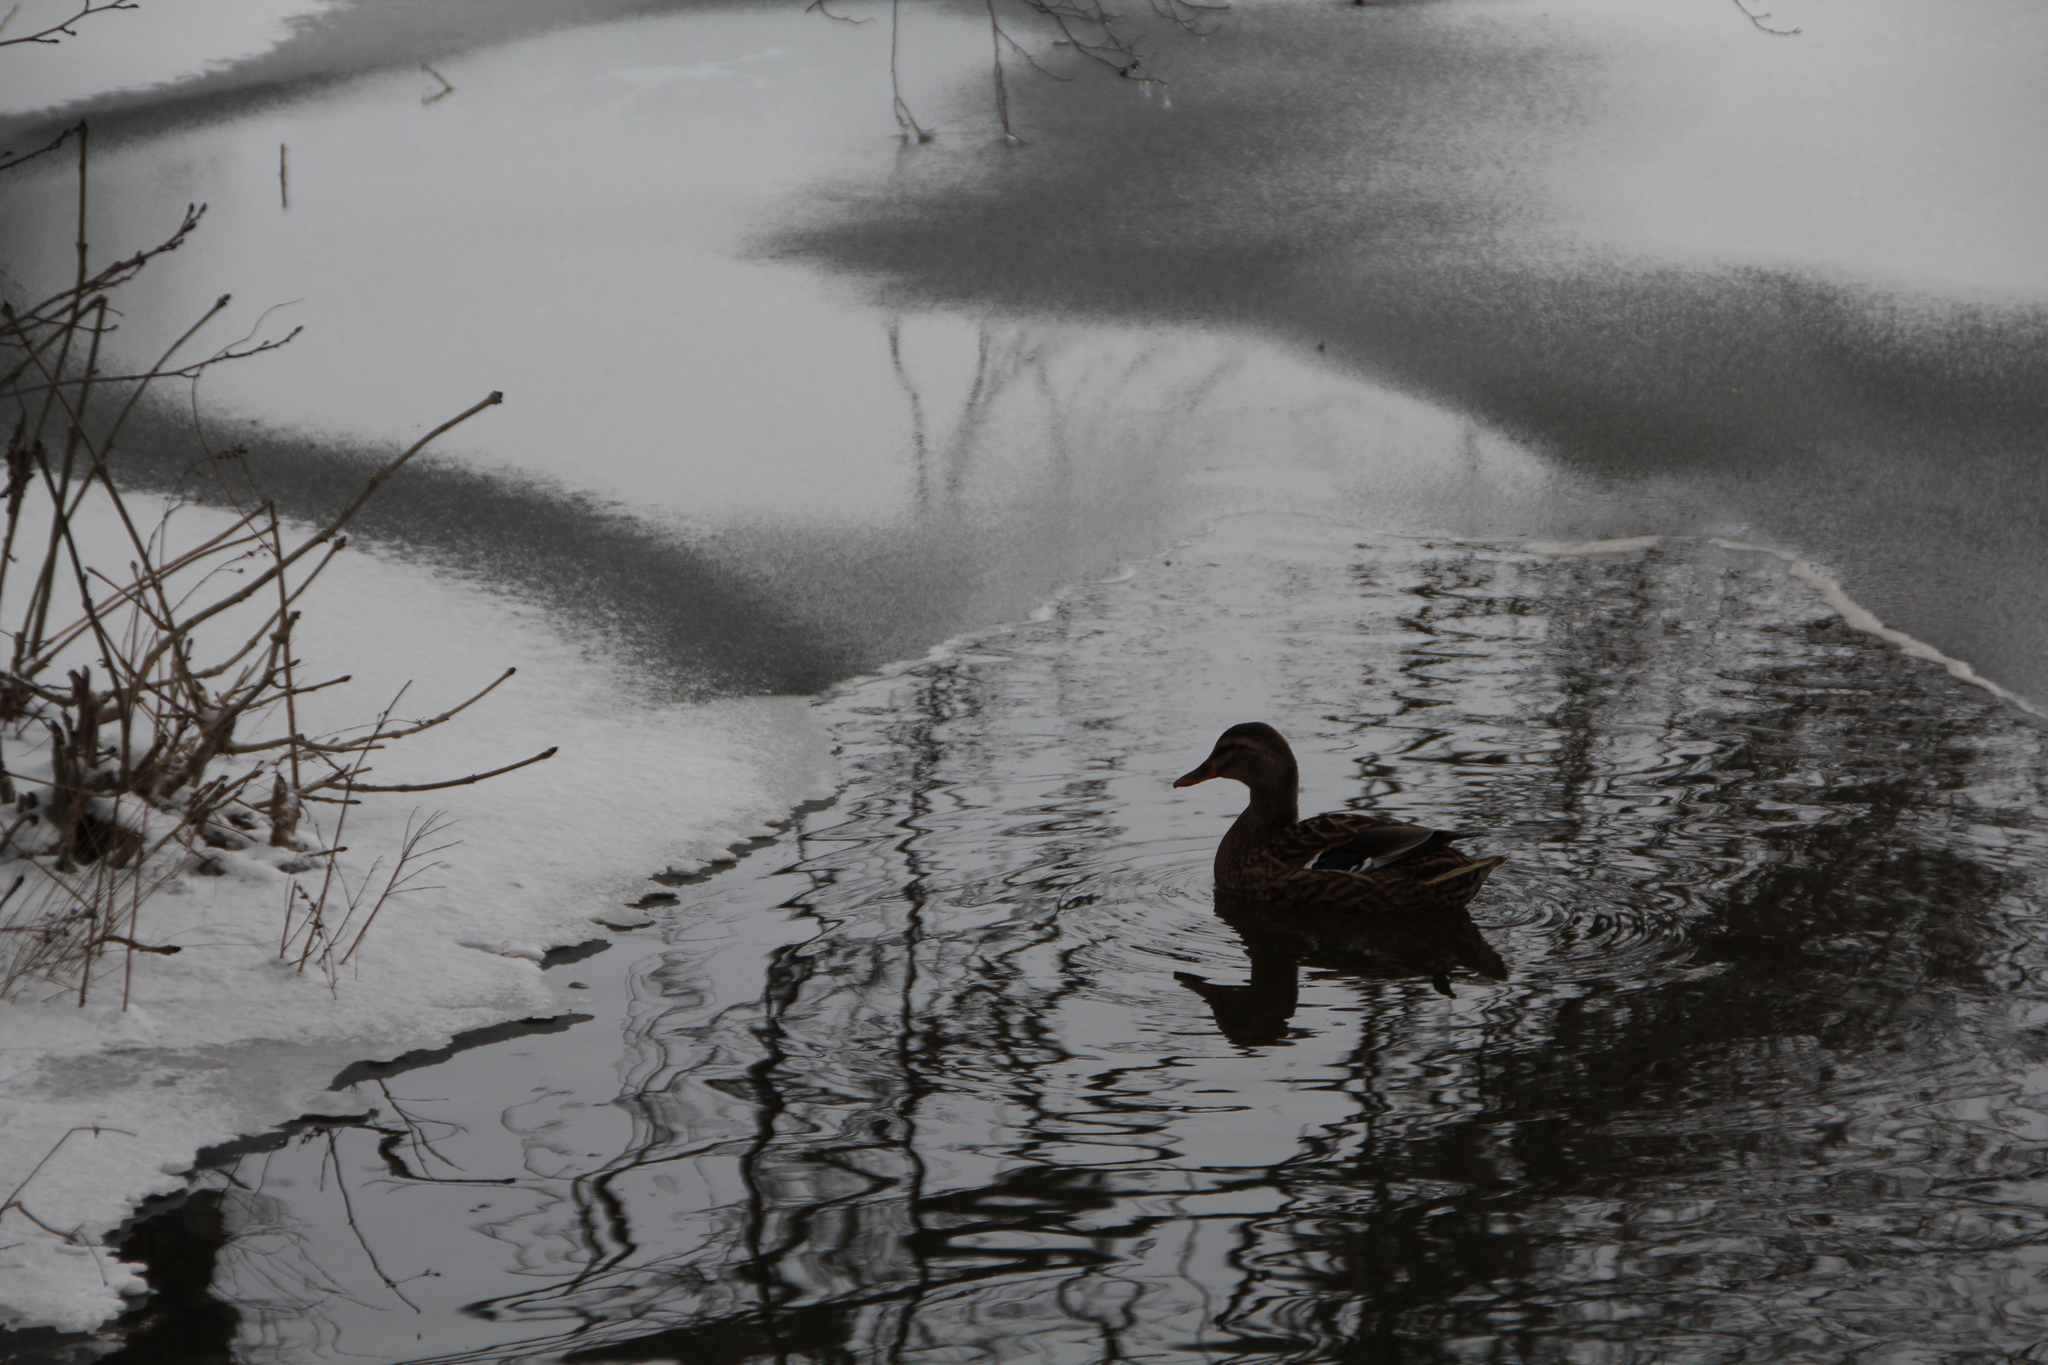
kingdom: Animalia
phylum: Chordata
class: Aves
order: Anseriformes
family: Anatidae
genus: Anas
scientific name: Anas platyrhynchos
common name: Mallard
